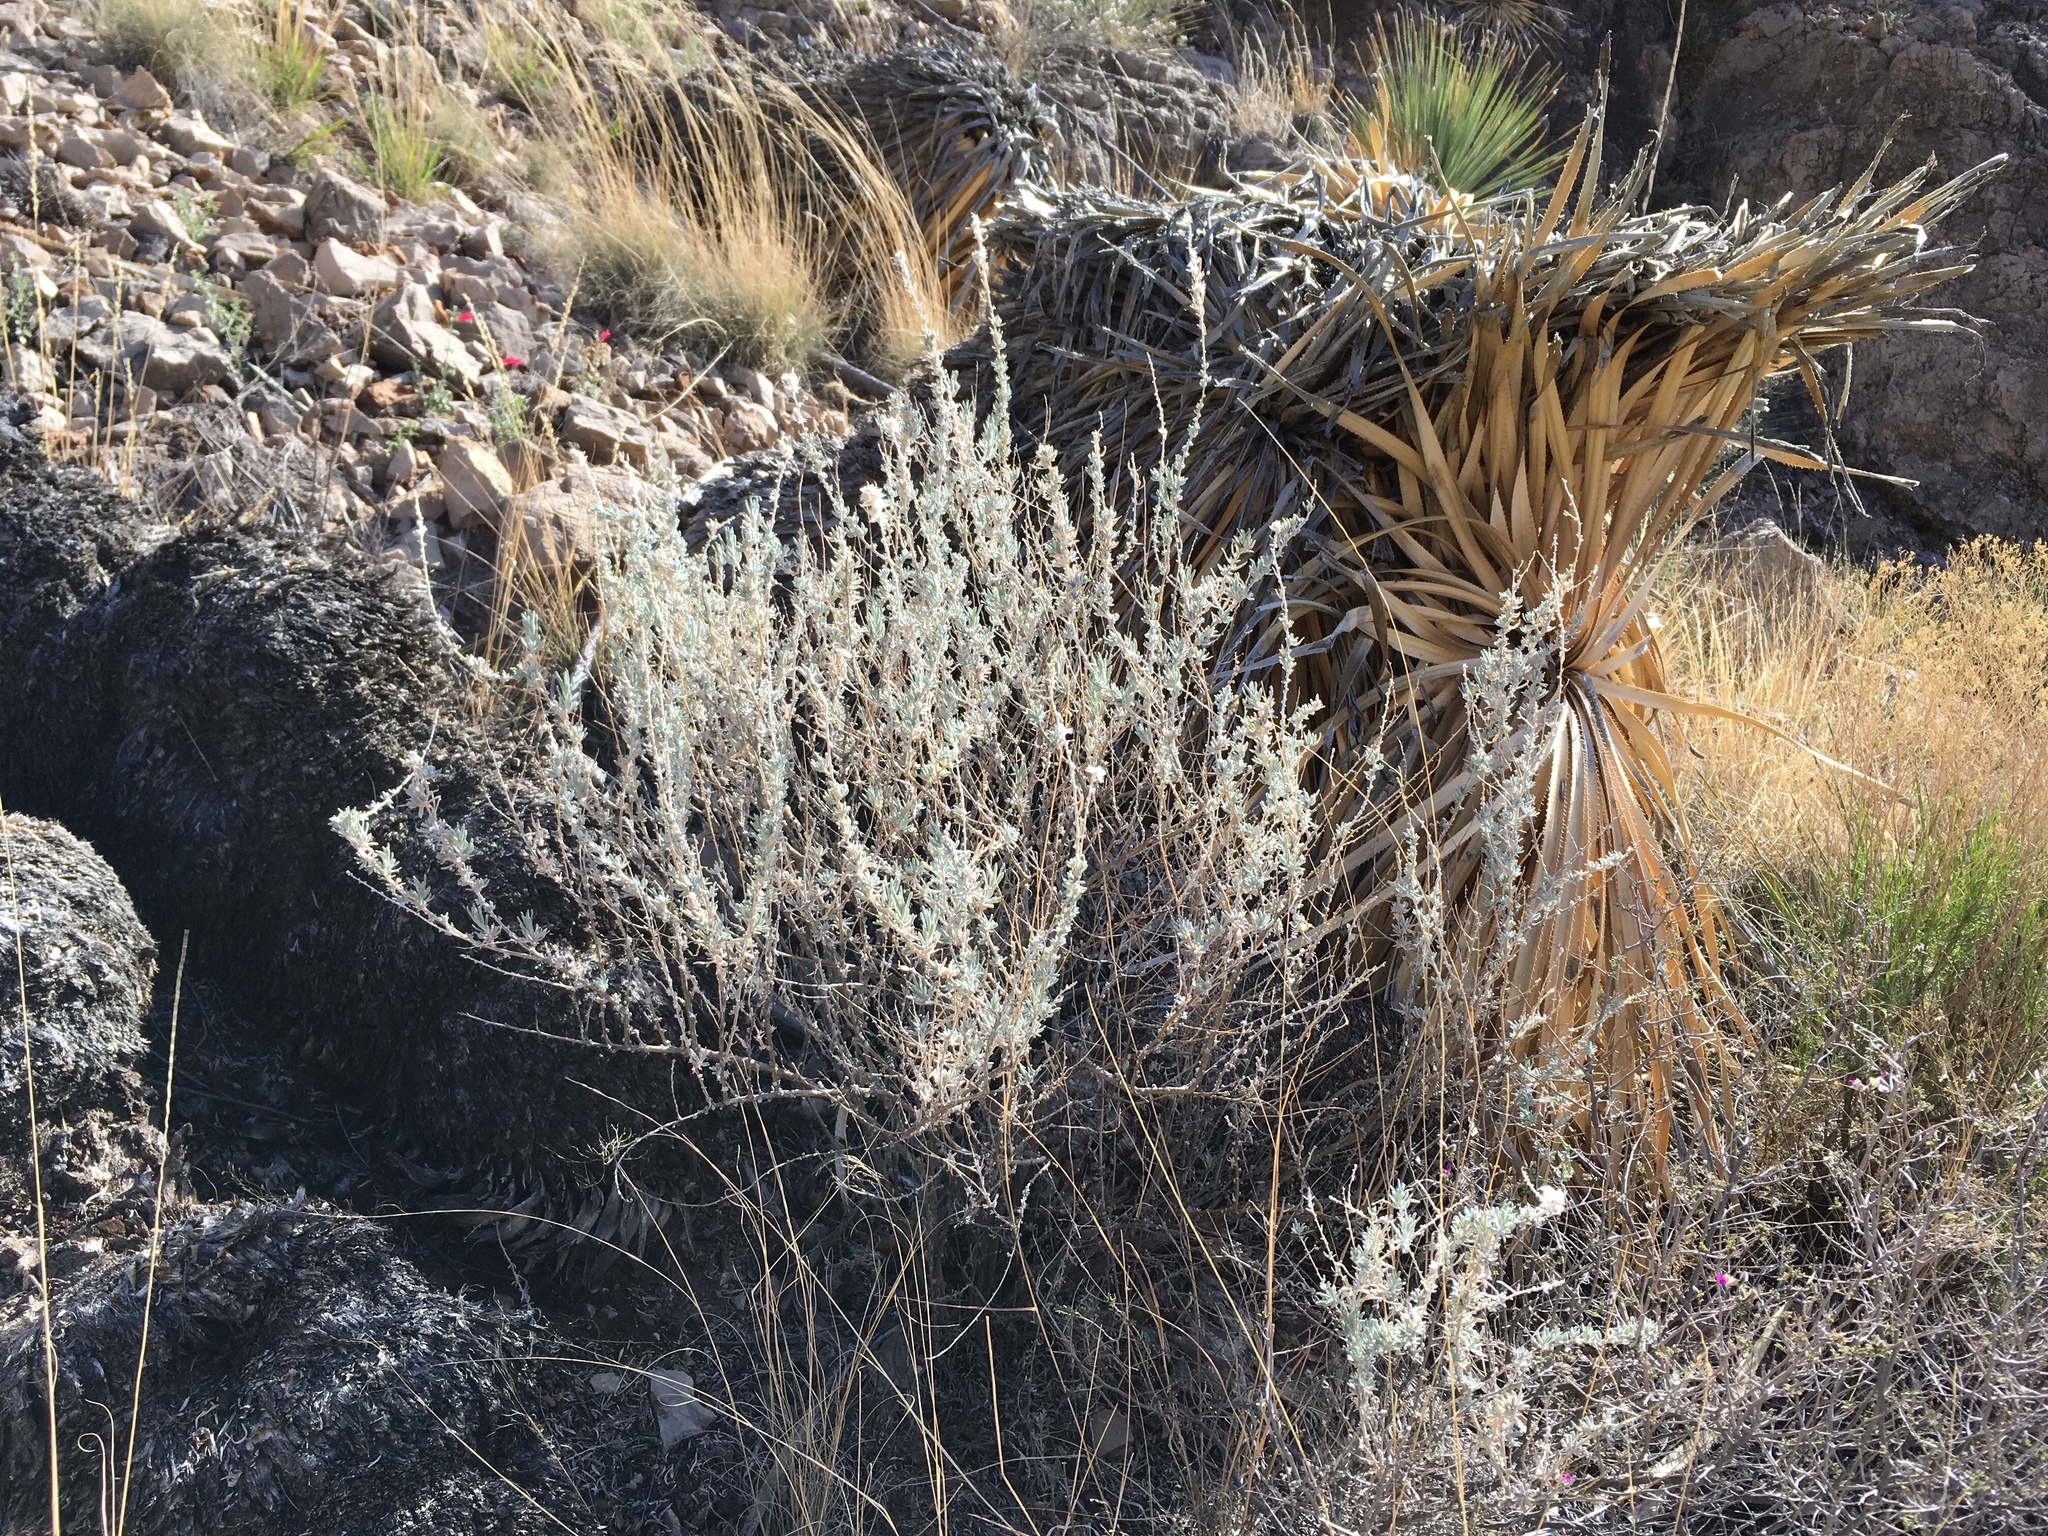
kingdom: Plantae
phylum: Tracheophyta
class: Magnoliopsida
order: Caryophyllales
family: Amaranthaceae
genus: Krascheninnikovia
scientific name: Krascheninnikovia lanata
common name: Winterfat
